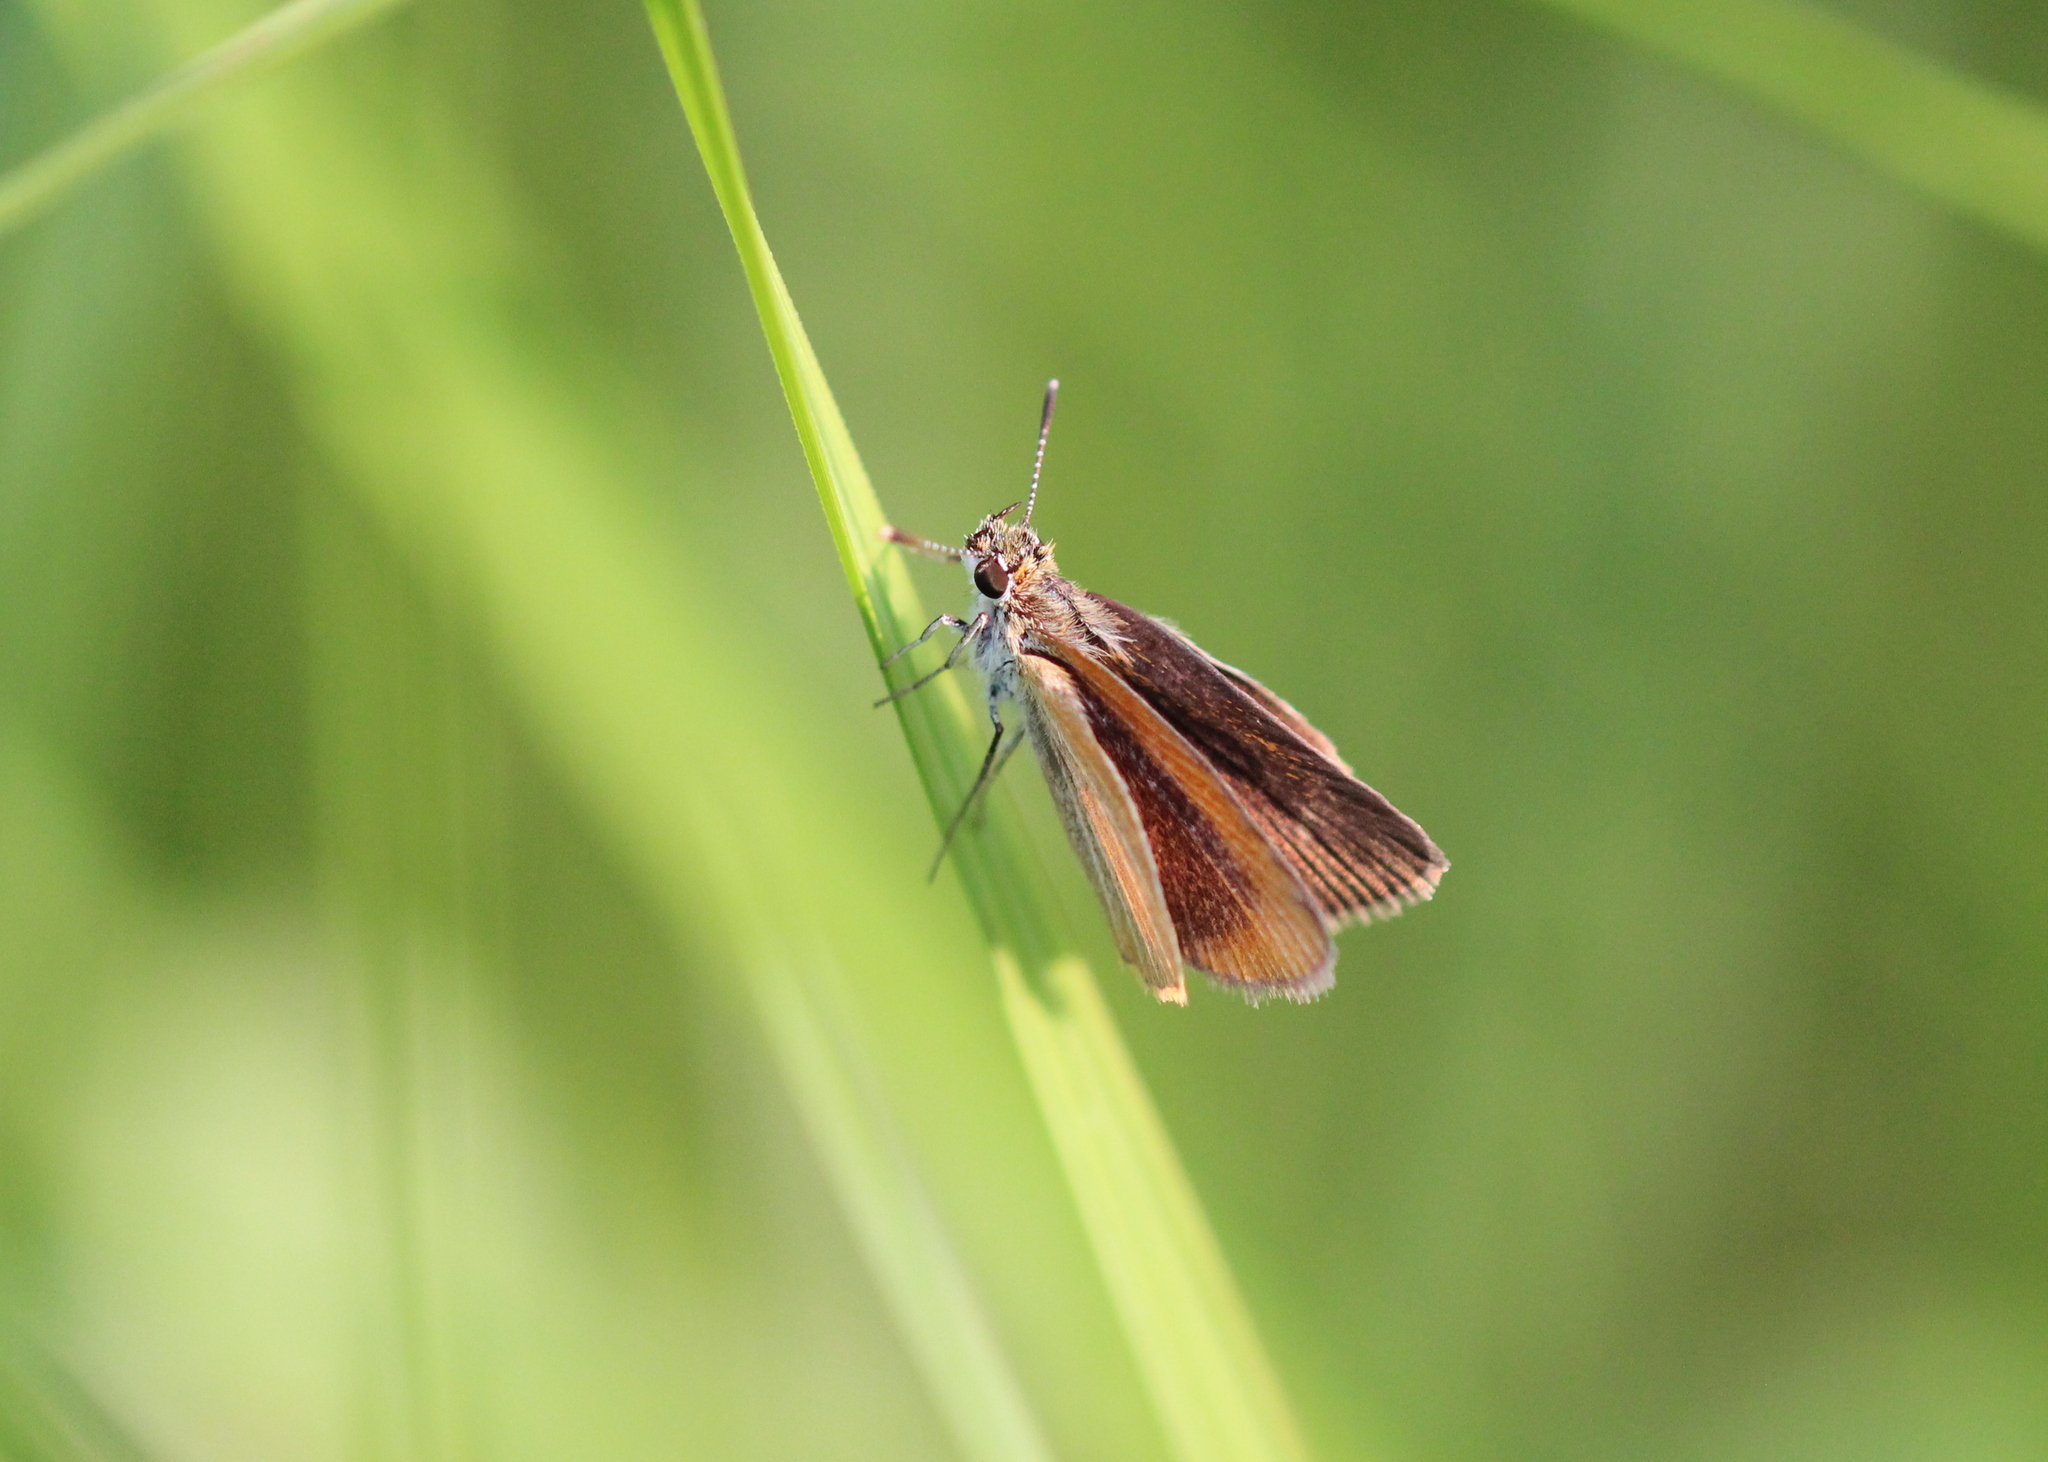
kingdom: Animalia
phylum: Arthropoda
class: Insecta
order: Lepidoptera
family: Hesperiidae
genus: Ancyloxypha
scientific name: Ancyloxypha numitor
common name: Least skipper
